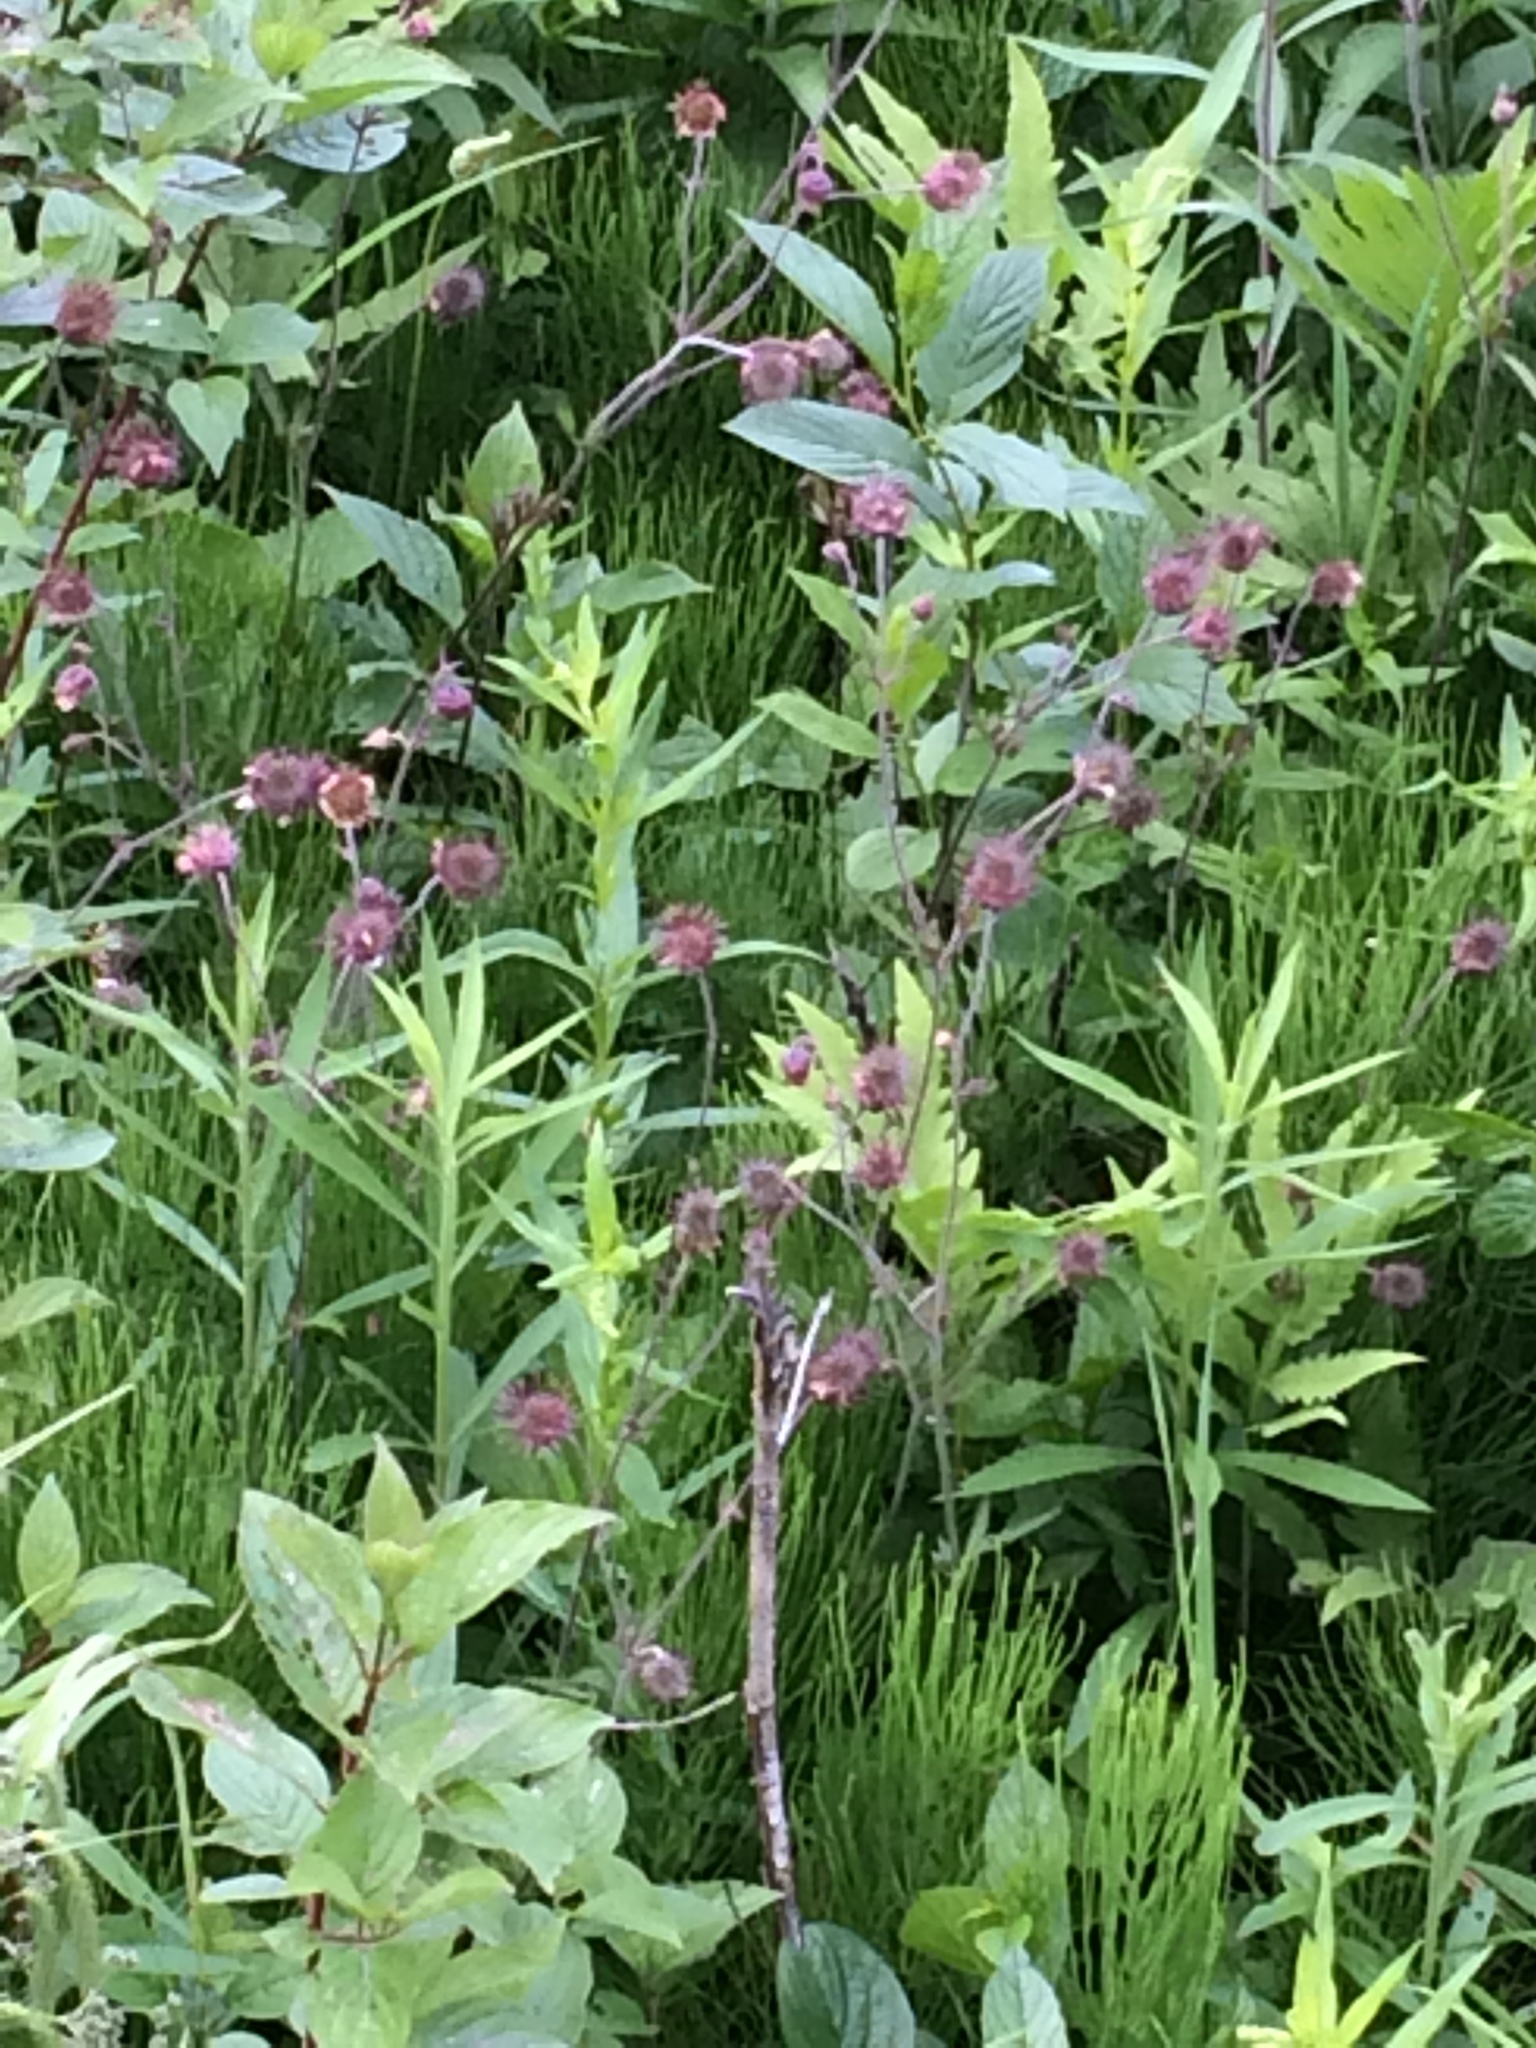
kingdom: Plantae
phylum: Tracheophyta
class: Magnoliopsida
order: Rosales
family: Rosaceae
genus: Geum
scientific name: Geum rivale
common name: Water avens
